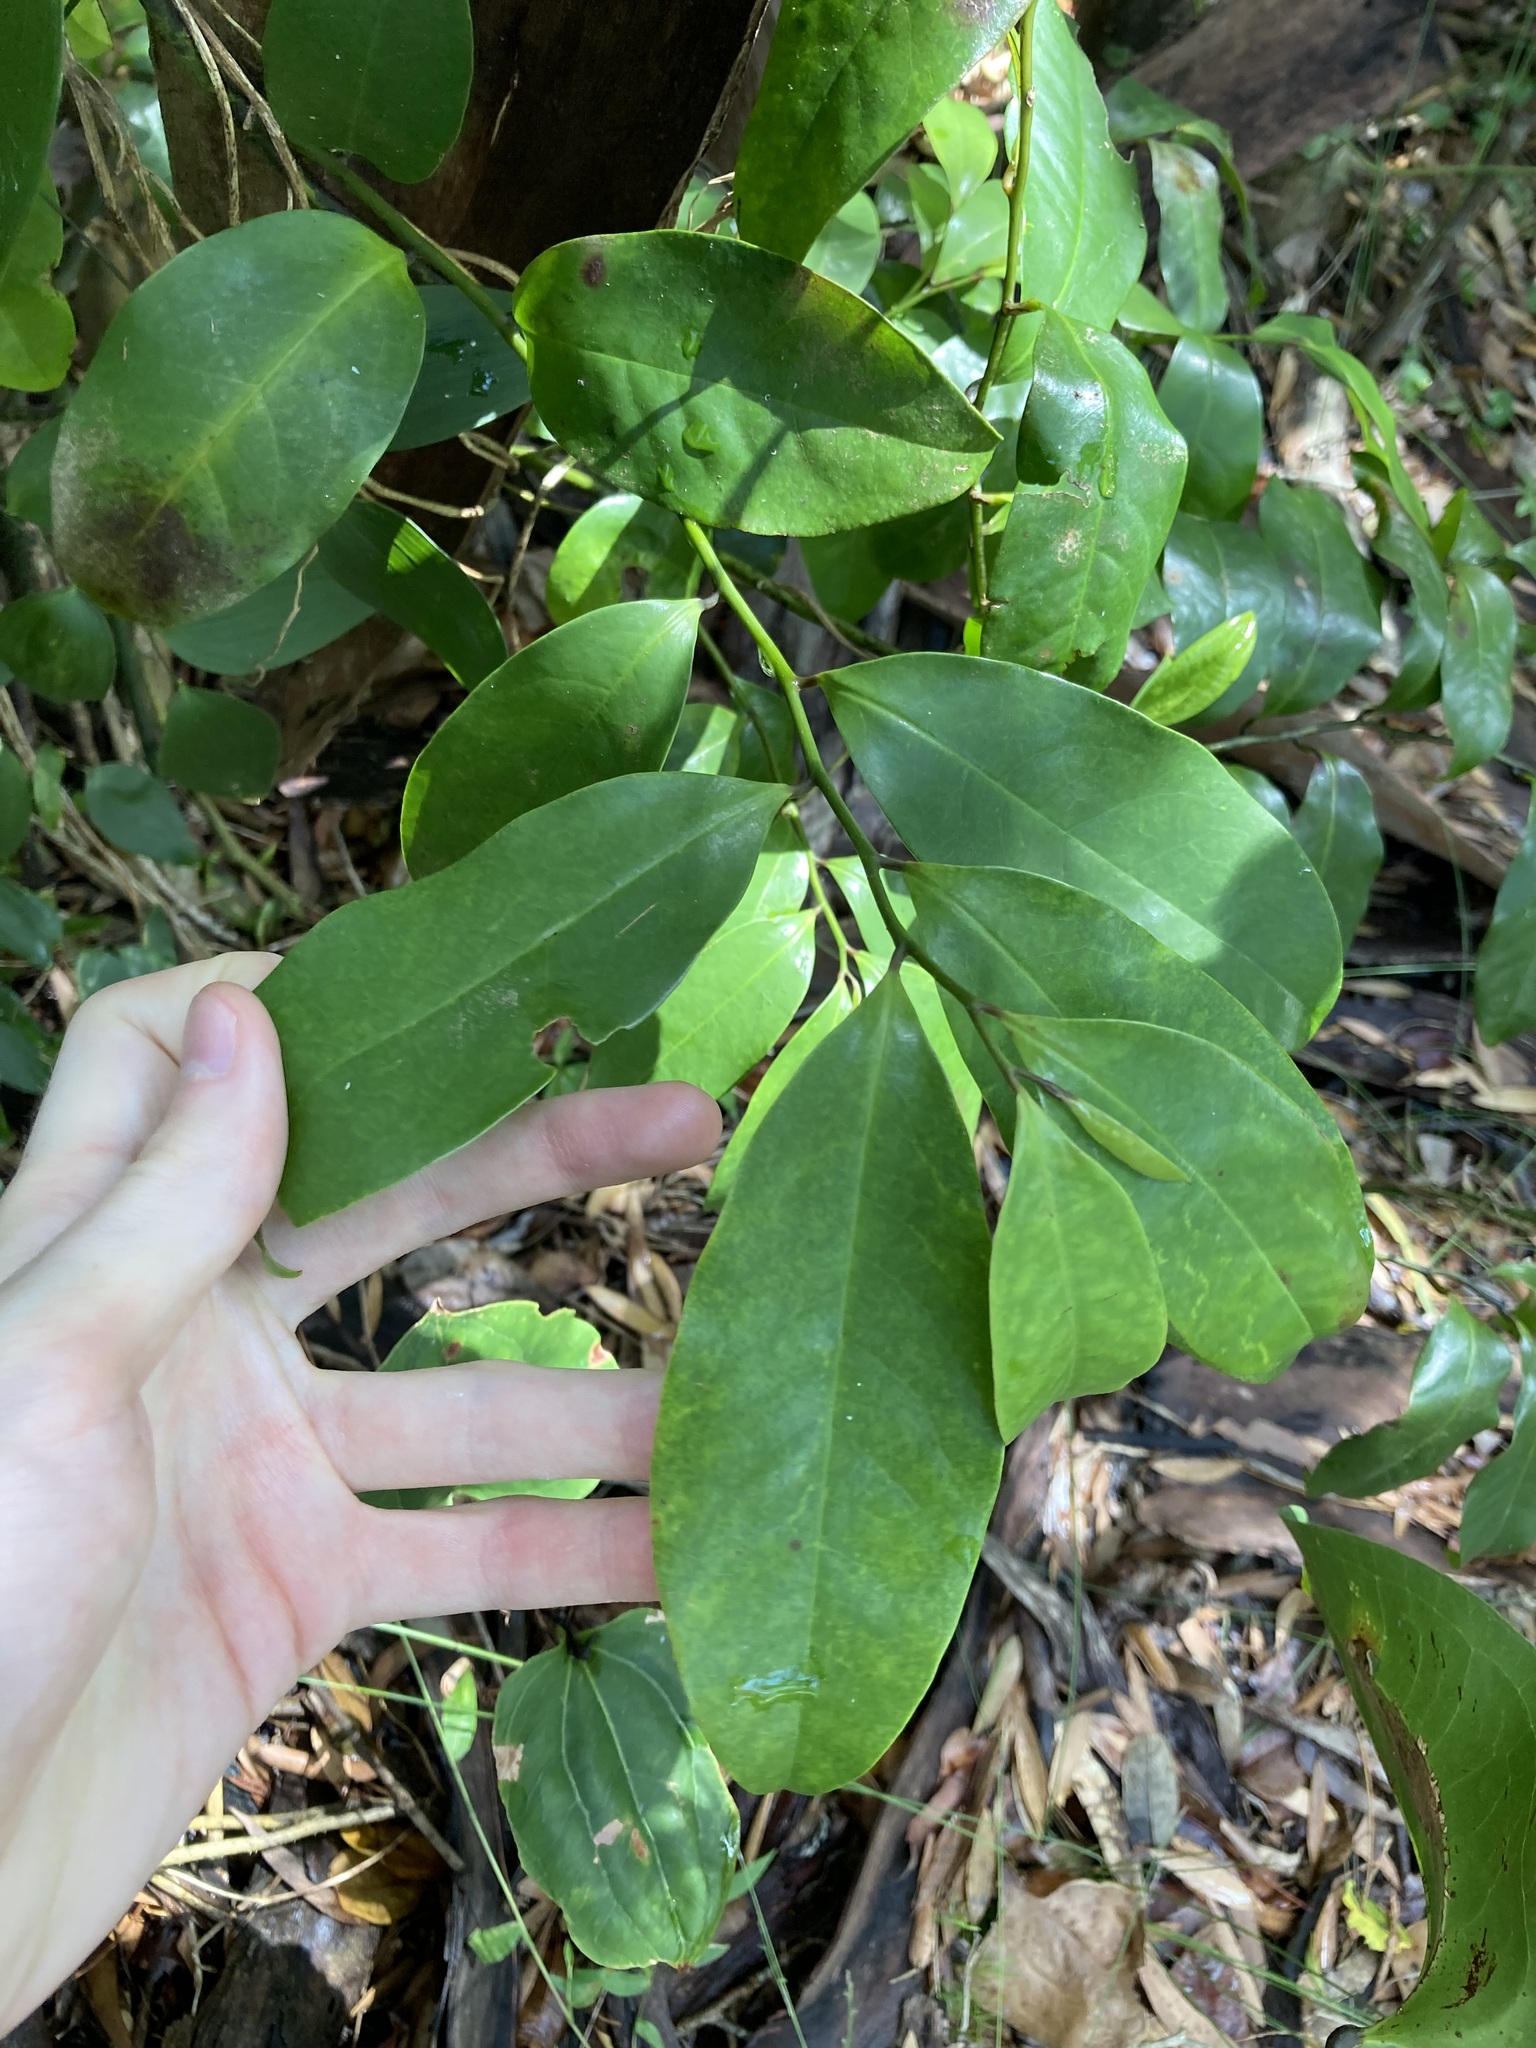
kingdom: Plantae
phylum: Tracheophyta
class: Magnoliopsida
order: Magnoliales
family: Eupomatiaceae
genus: Eupomatia
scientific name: Eupomatia laurina
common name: Bolwarra
